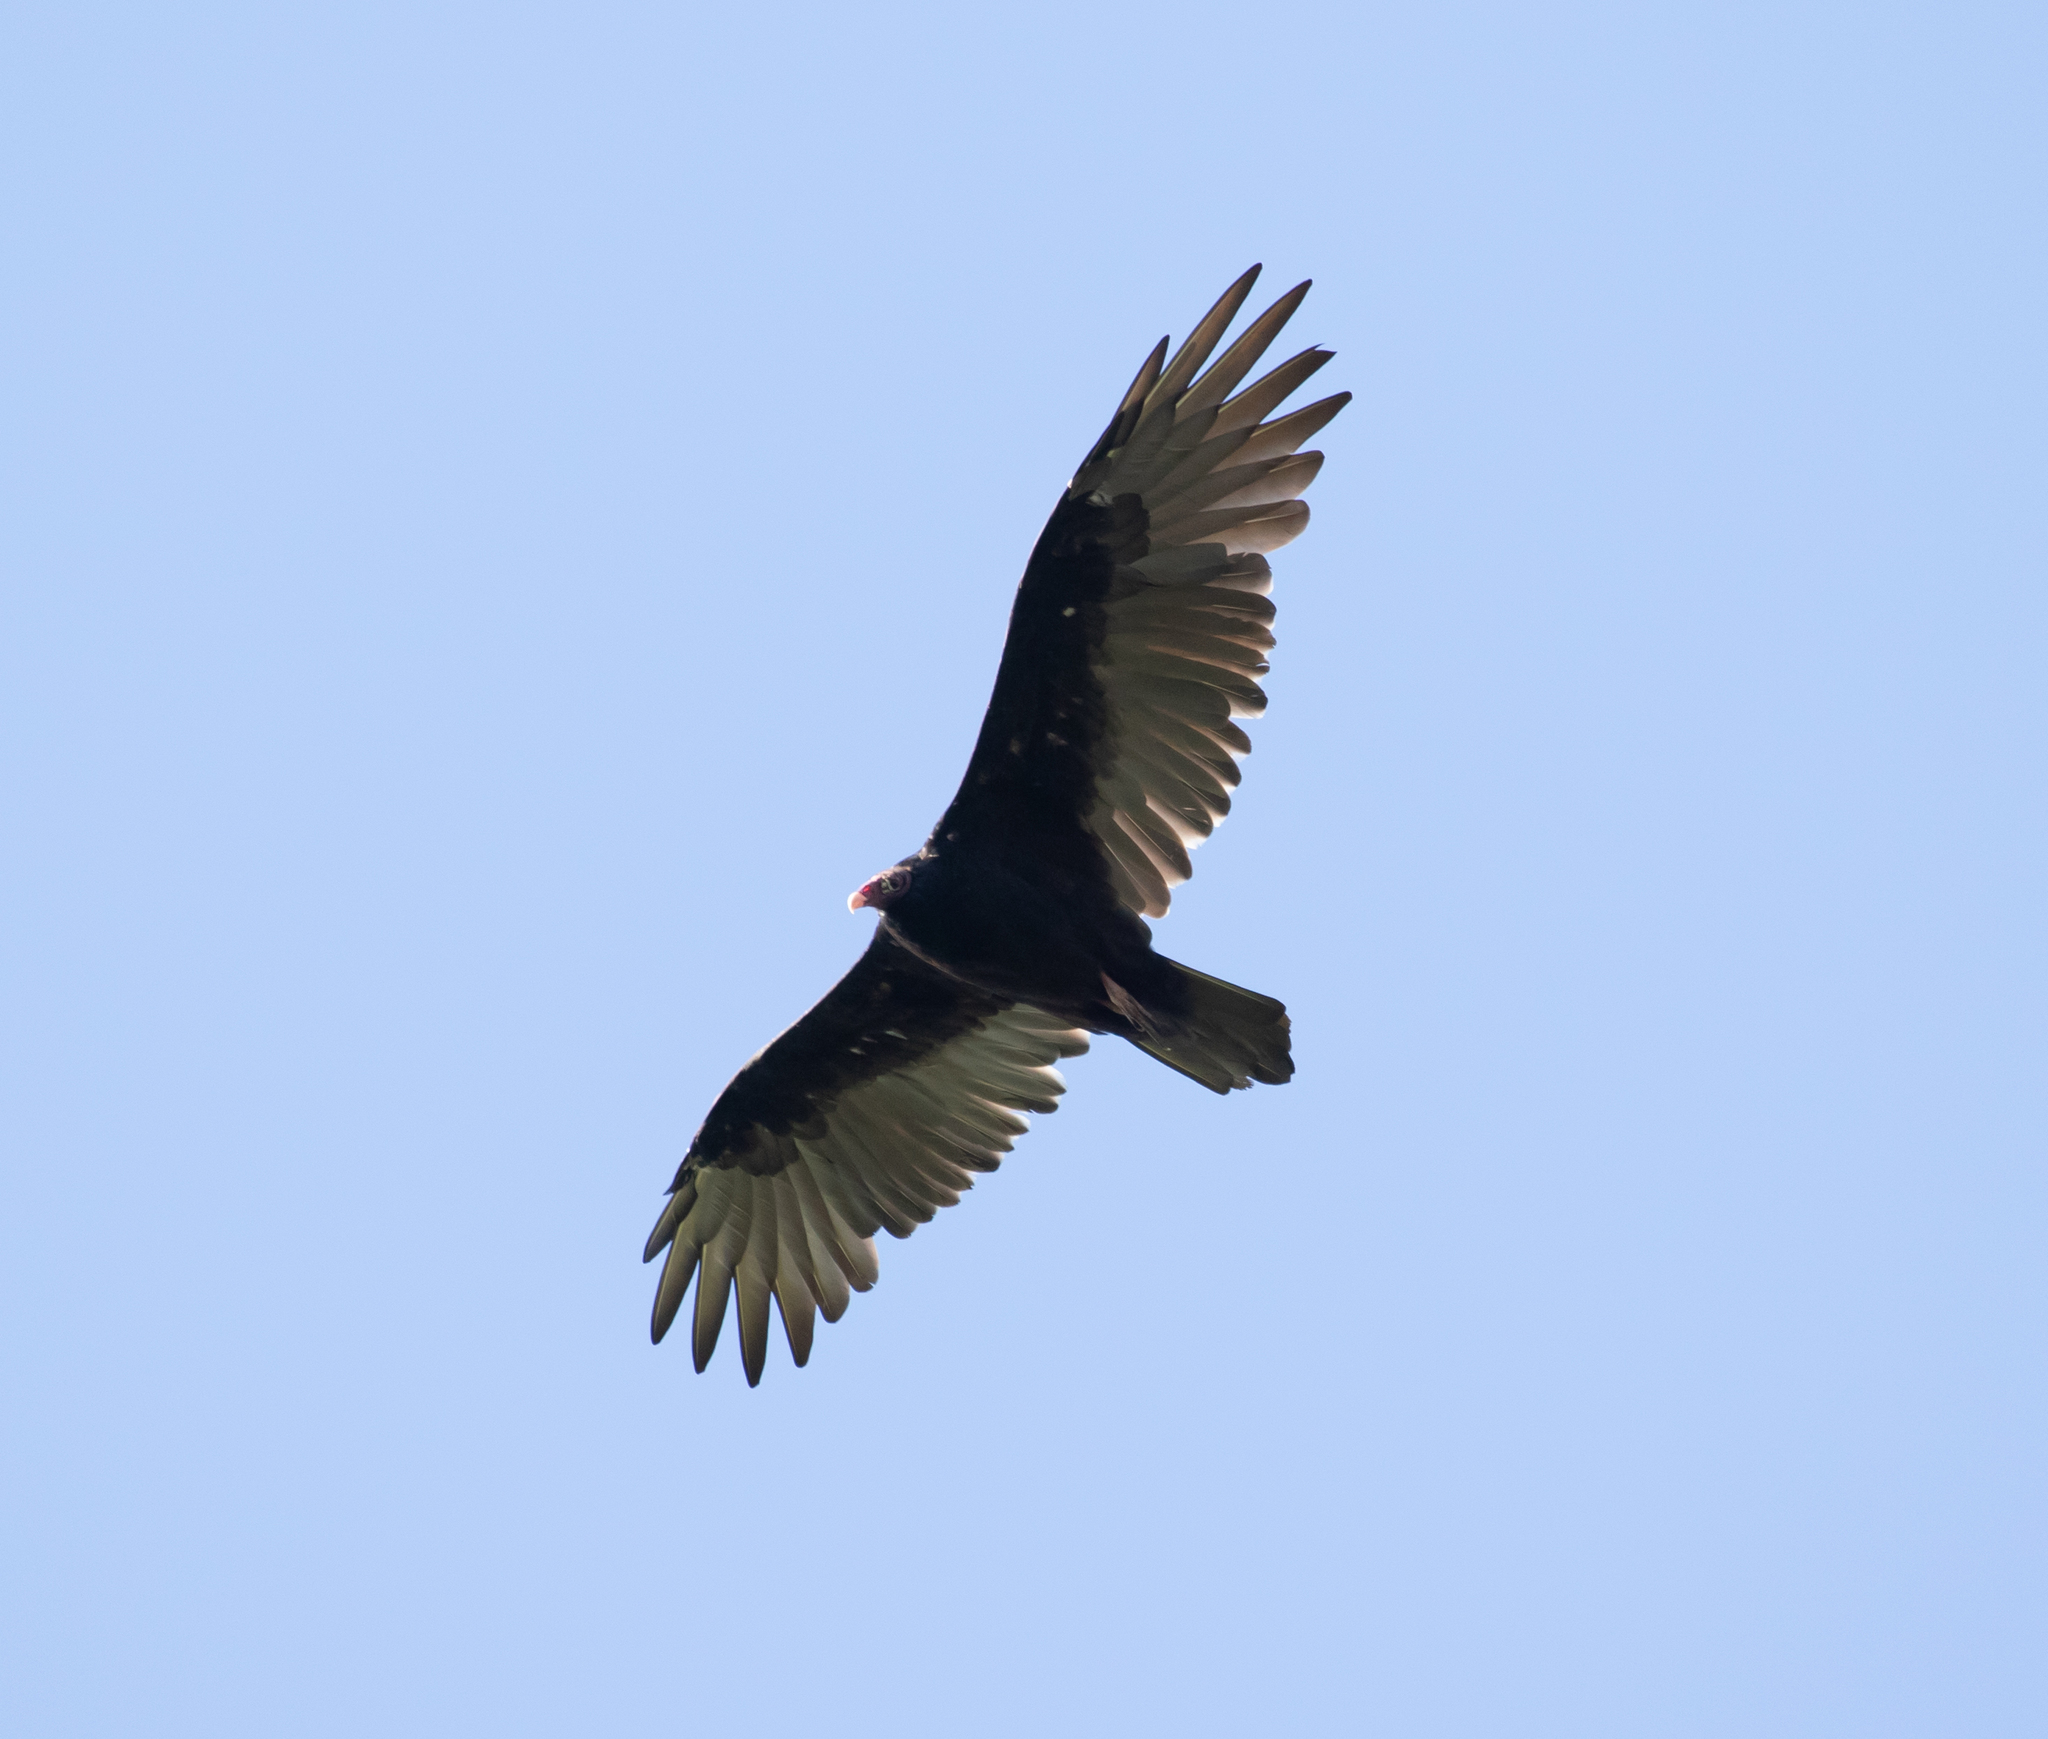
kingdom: Animalia
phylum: Chordata
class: Aves
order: Accipitriformes
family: Cathartidae
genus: Cathartes
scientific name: Cathartes aura
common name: Turkey vulture
